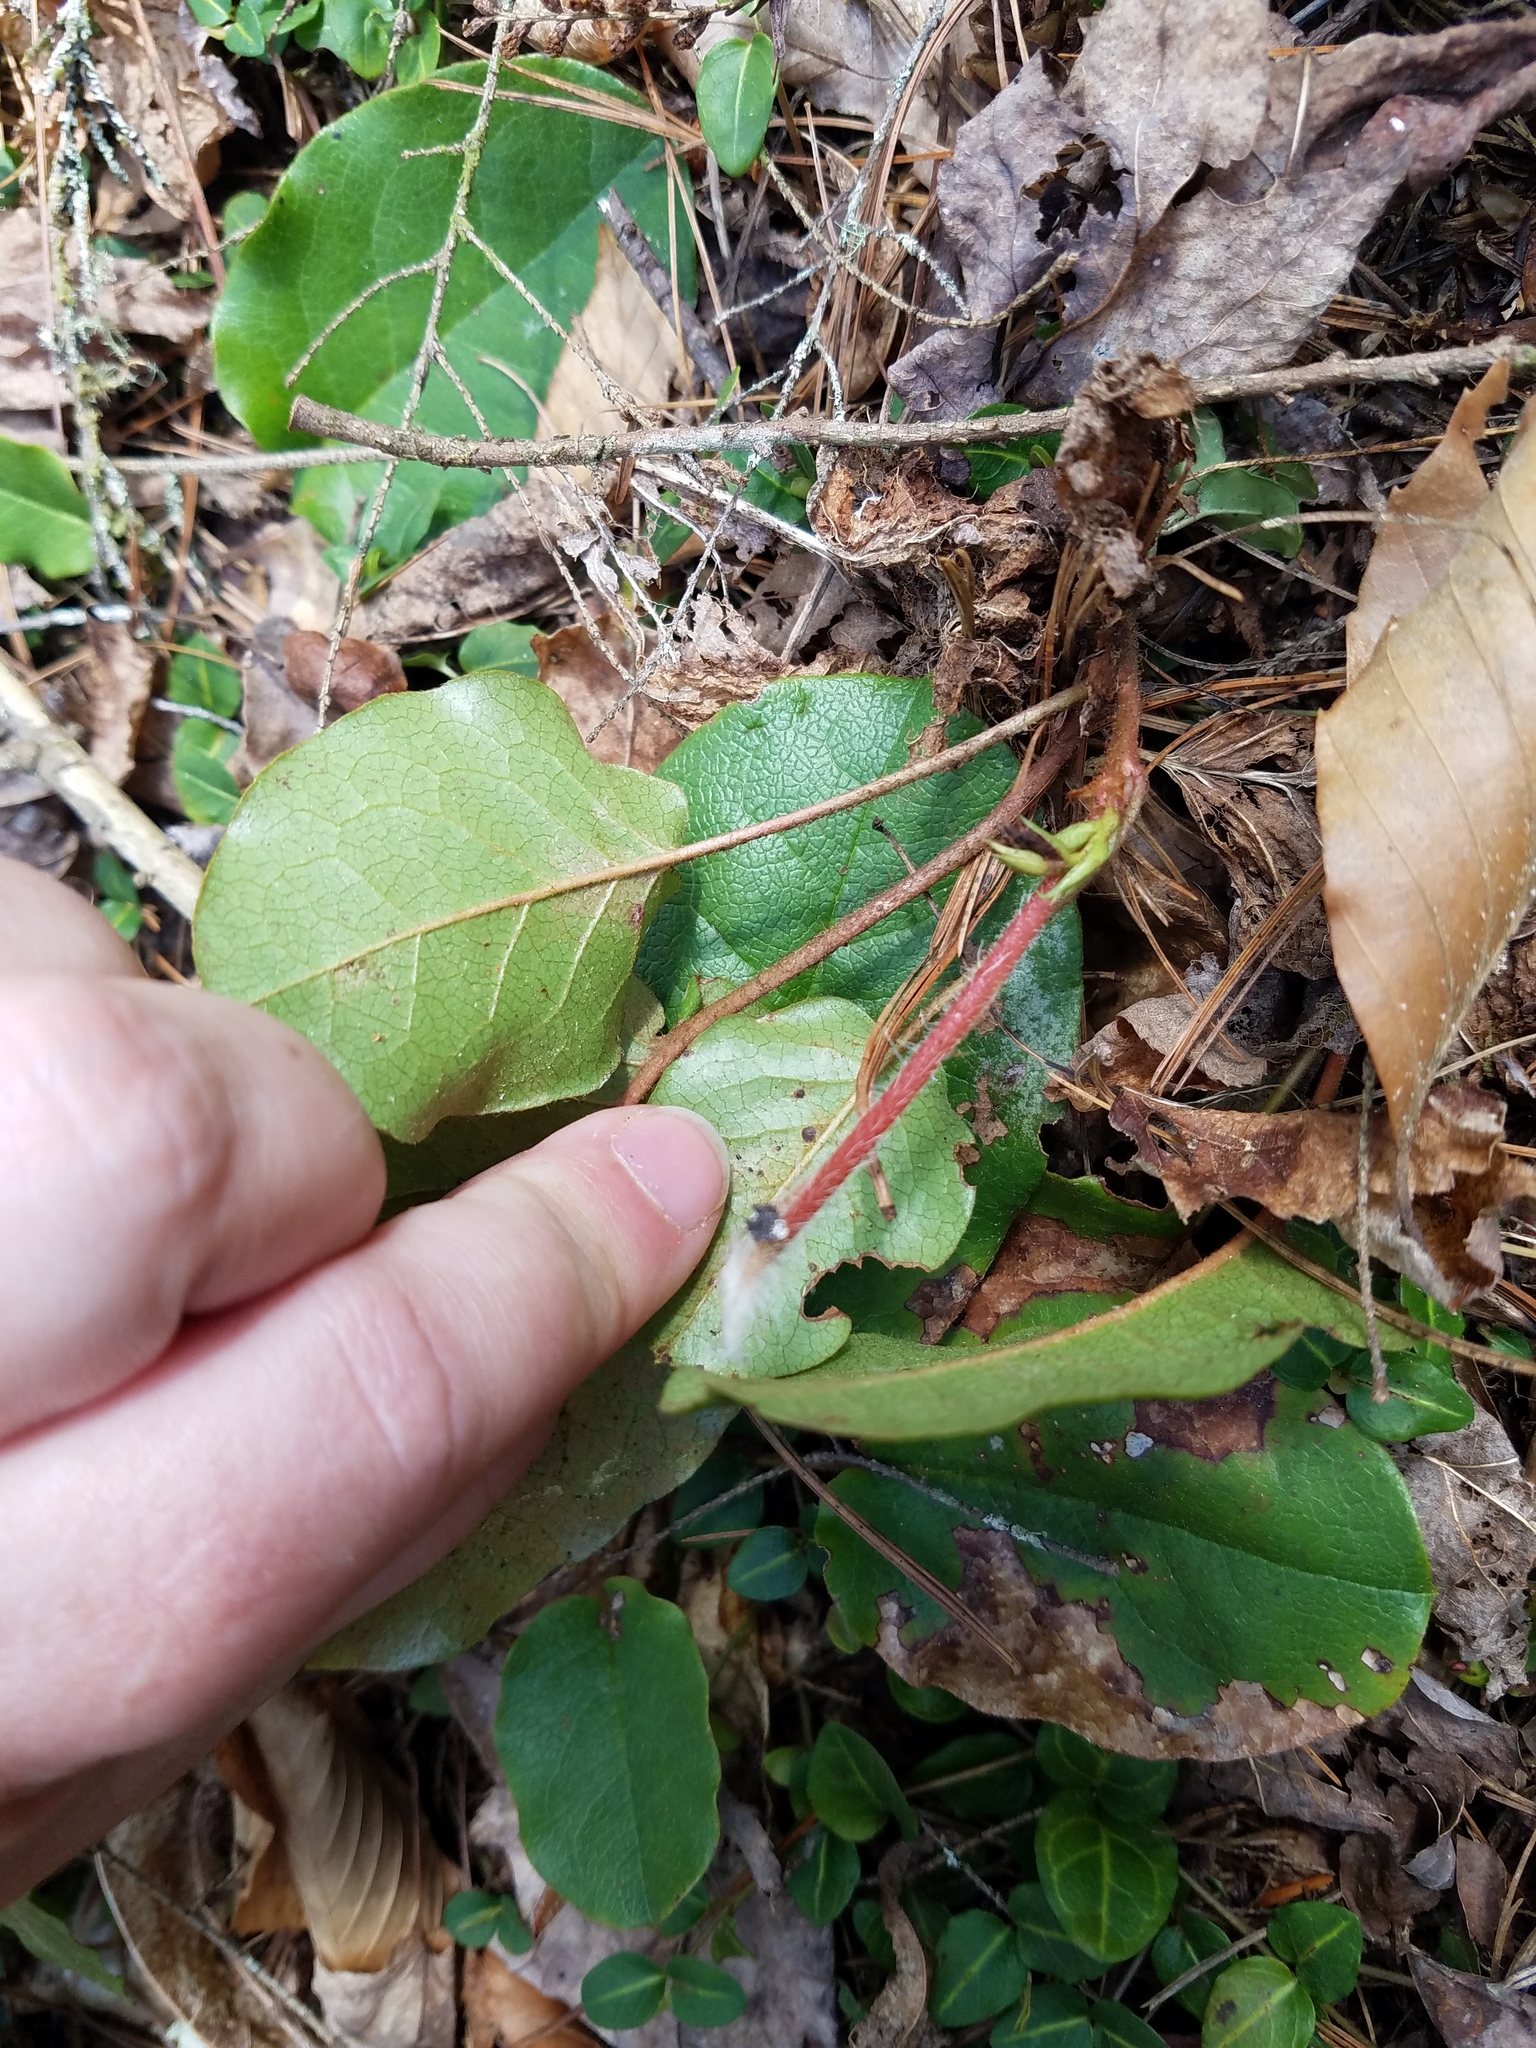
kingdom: Plantae
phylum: Tracheophyta
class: Magnoliopsida
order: Ericales
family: Ericaceae
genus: Epigaea
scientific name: Epigaea repens
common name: Gravelroot
